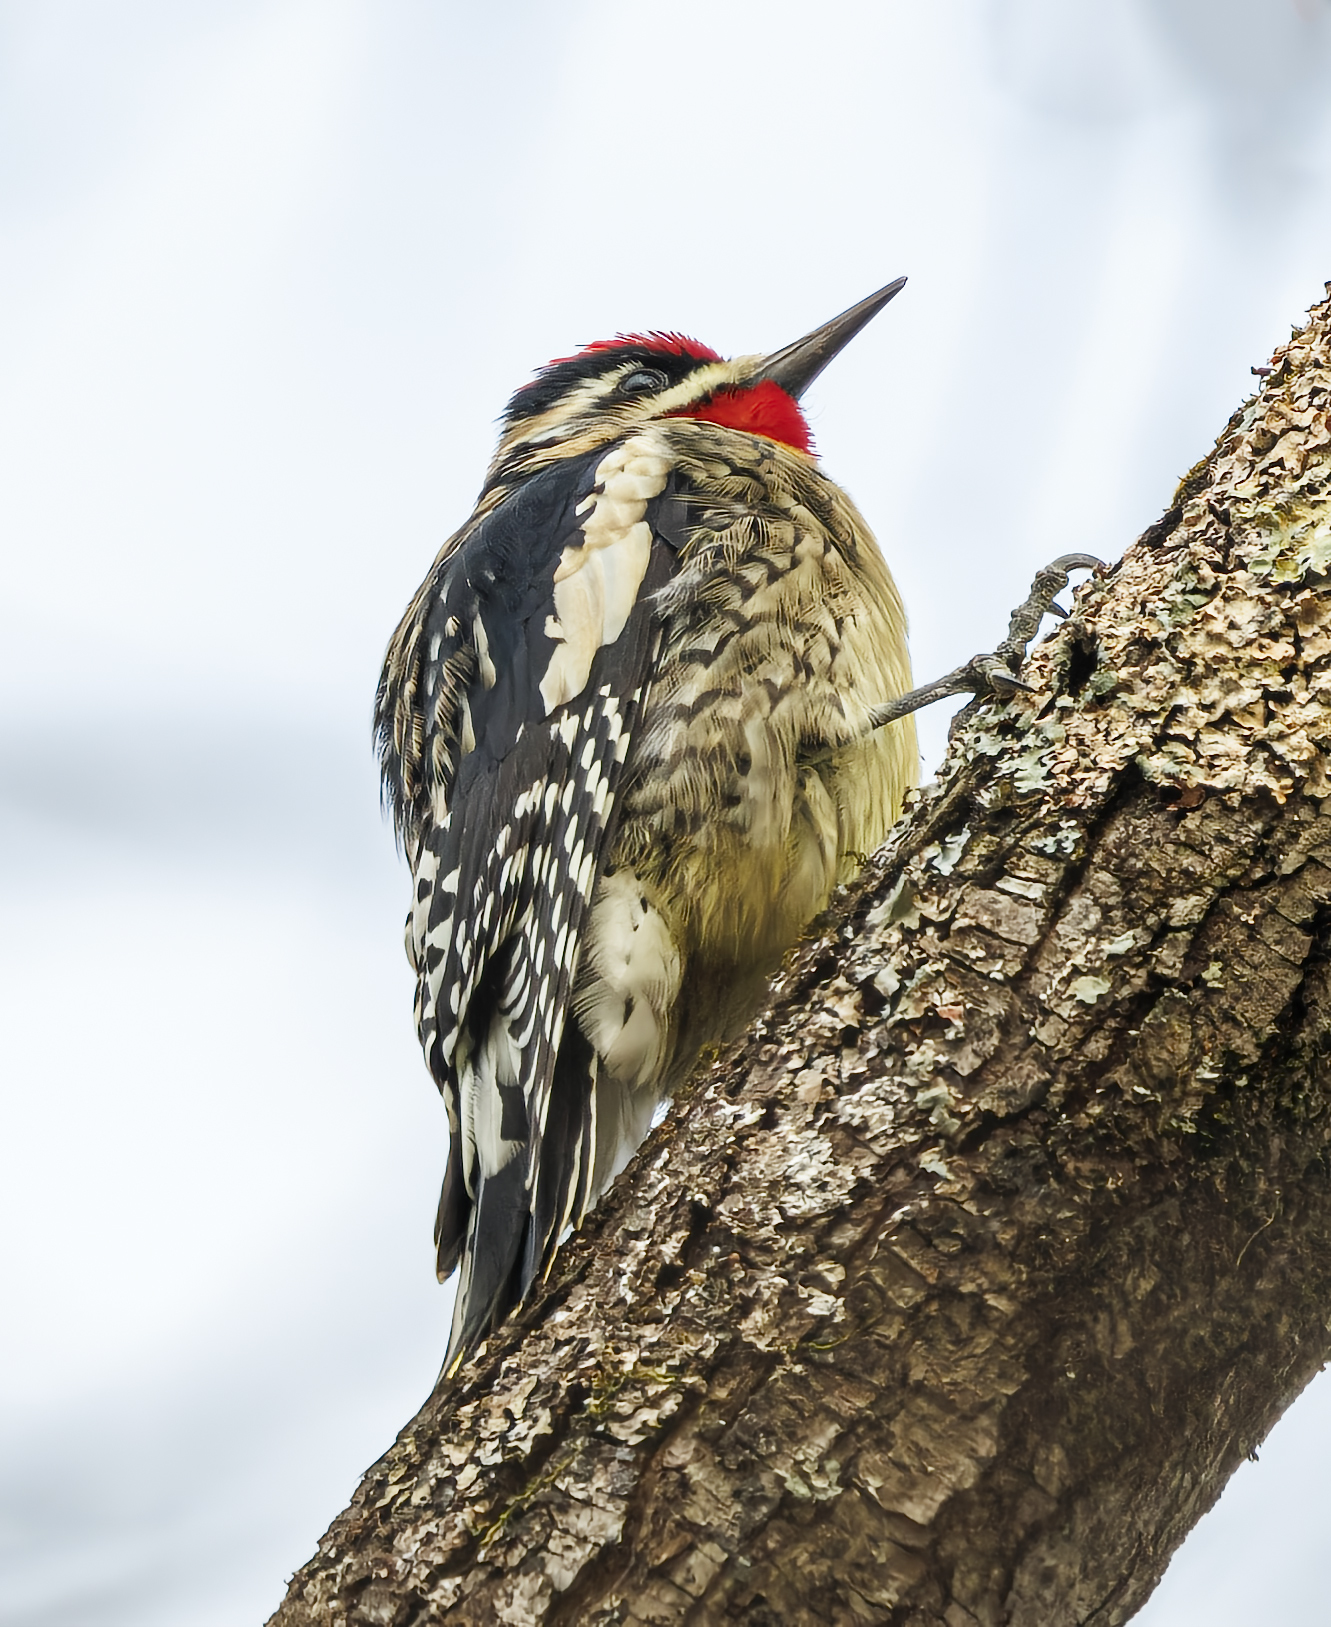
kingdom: Animalia
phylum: Chordata
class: Aves
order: Piciformes
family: Picidae
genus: Sphyrapicus
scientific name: Sphyrapicus varius
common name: Yellow-bellied sapsucker
